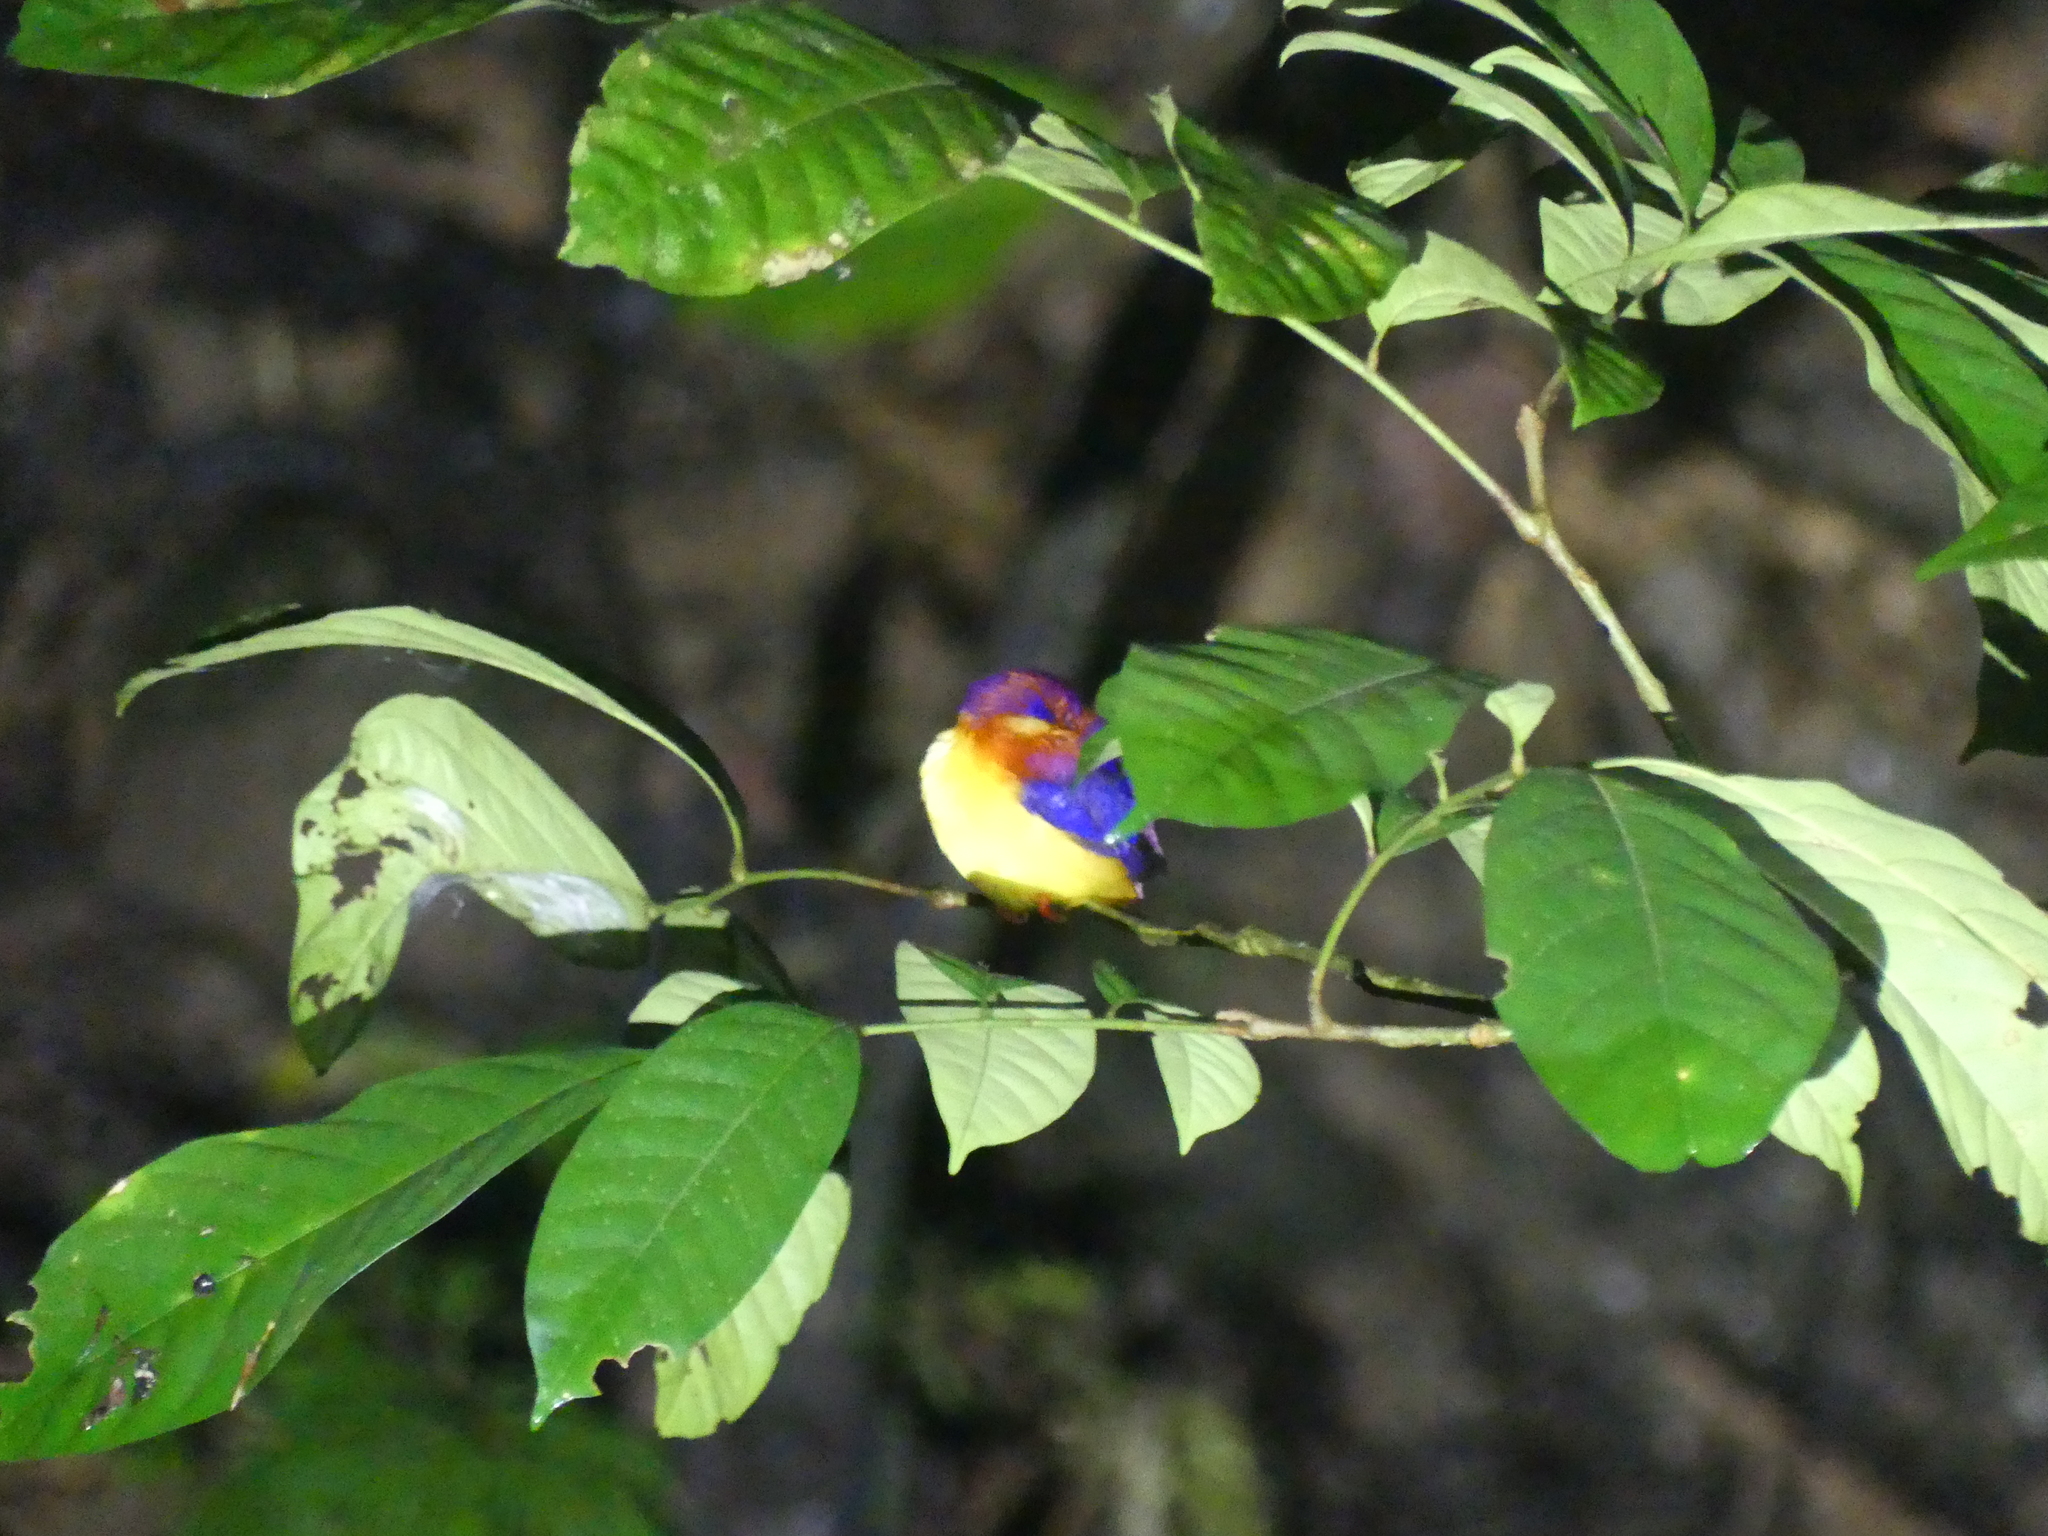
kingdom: Animalia
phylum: Chordata
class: Aves
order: Coraciiformes
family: Alcedinidae
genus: Ceyx
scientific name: Ceyx erithaca
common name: Oriental dwarf kingfisher
